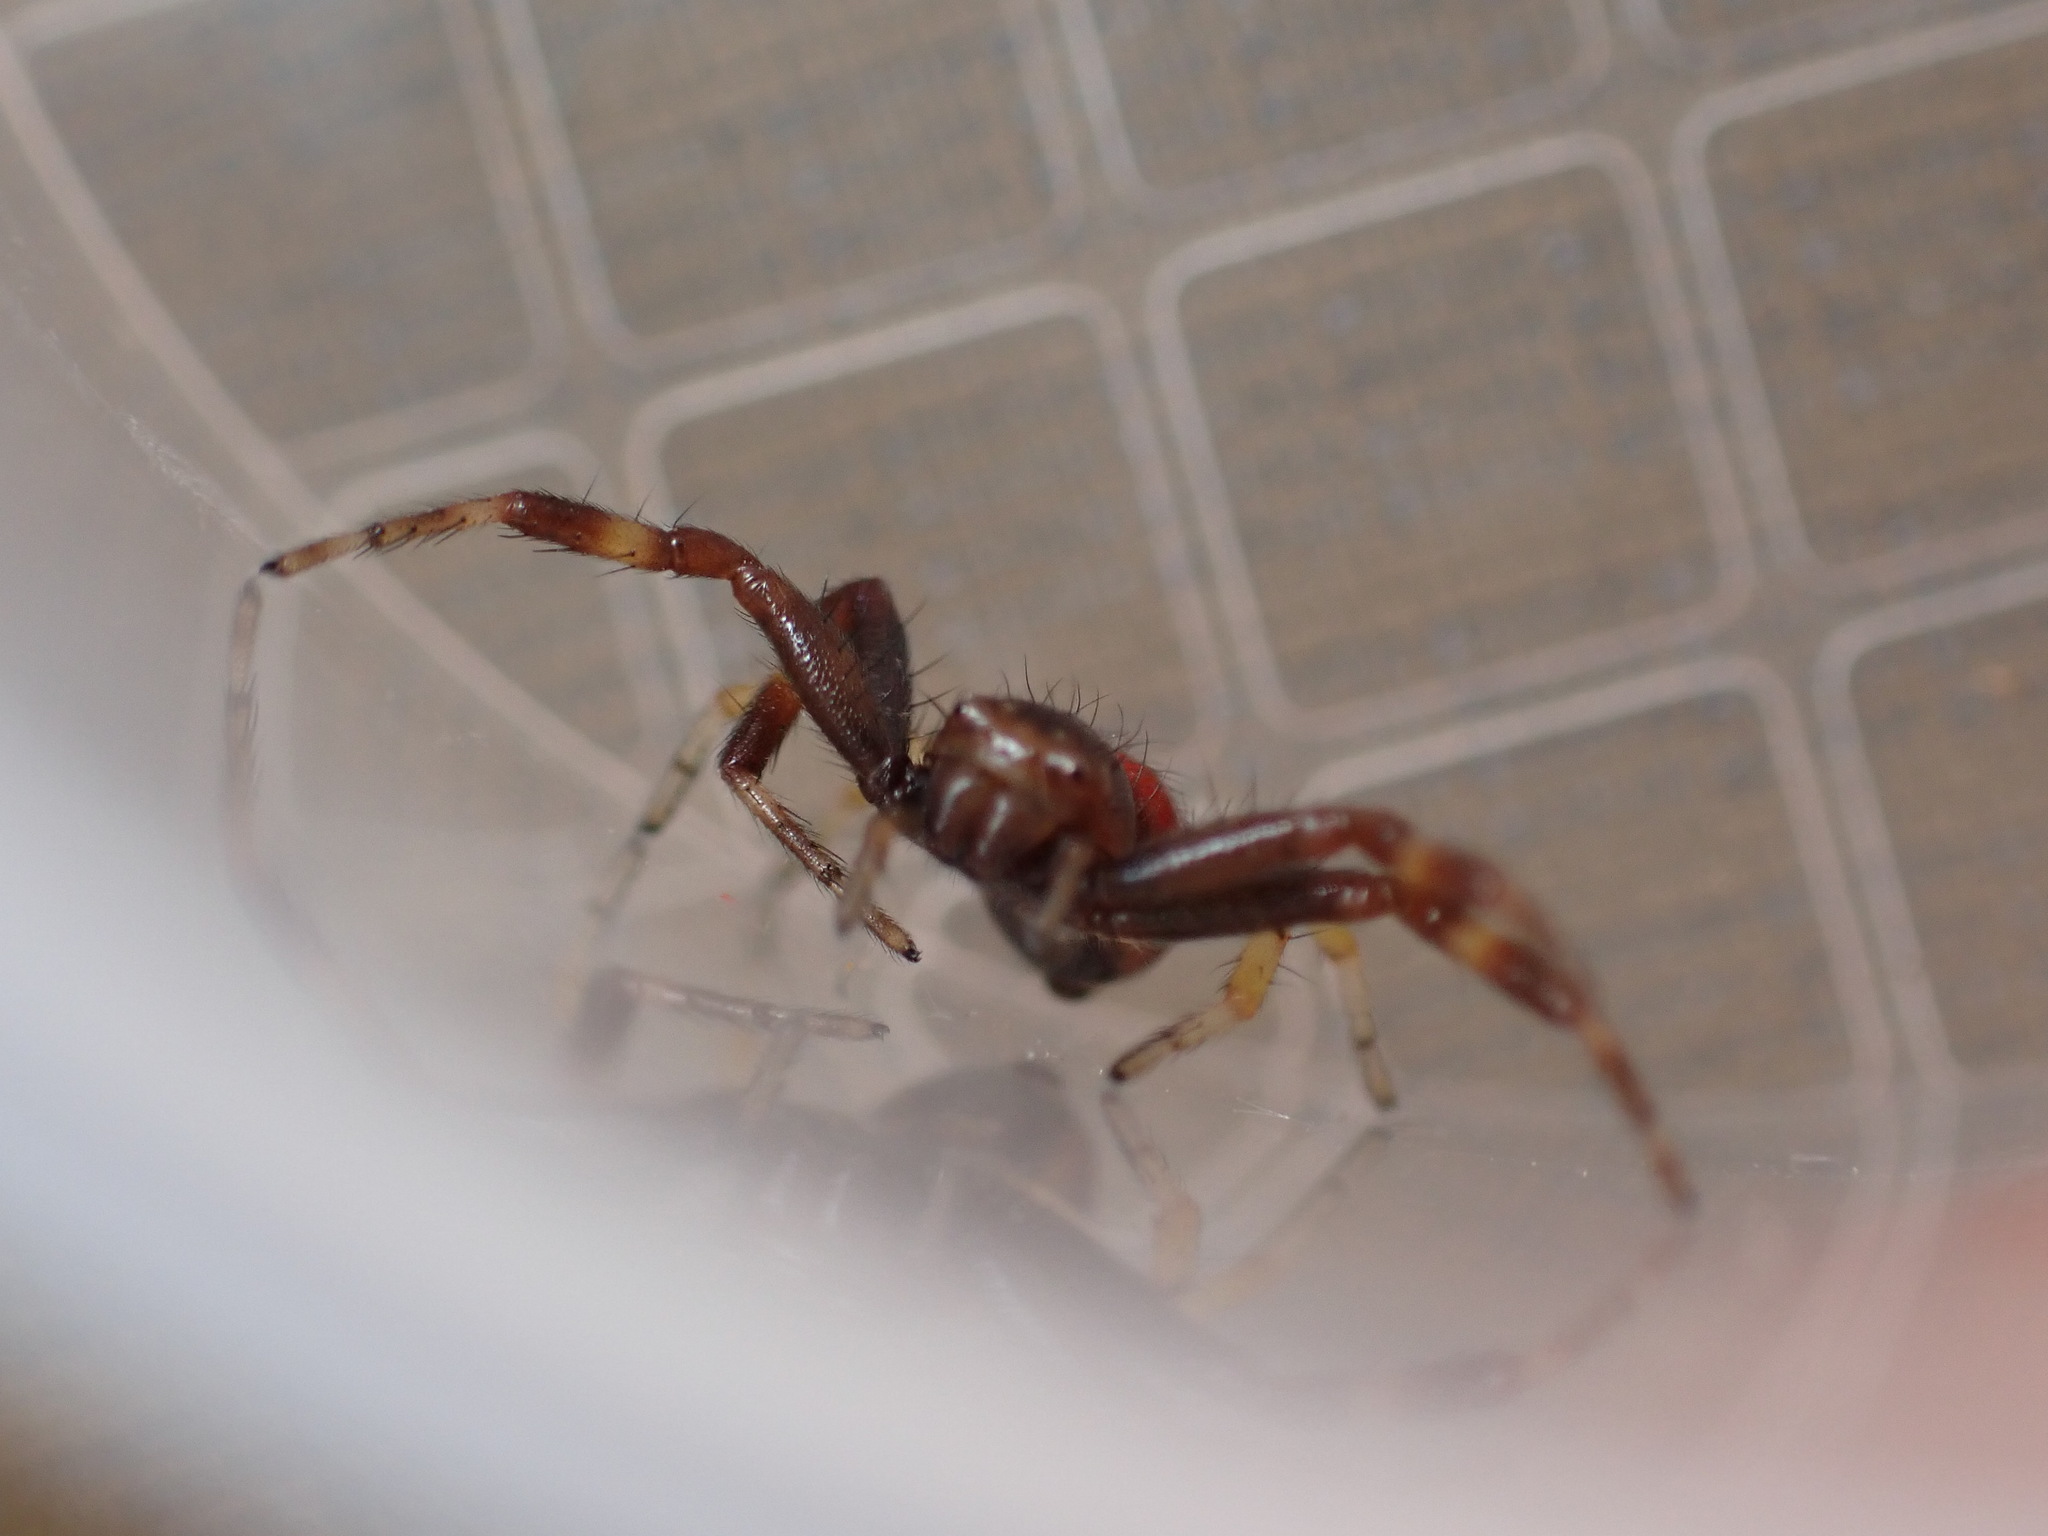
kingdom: Animalia
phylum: Arthropoda
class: Arachnida
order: Araneae
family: Thomisidae
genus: Synema
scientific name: Synema globosum
